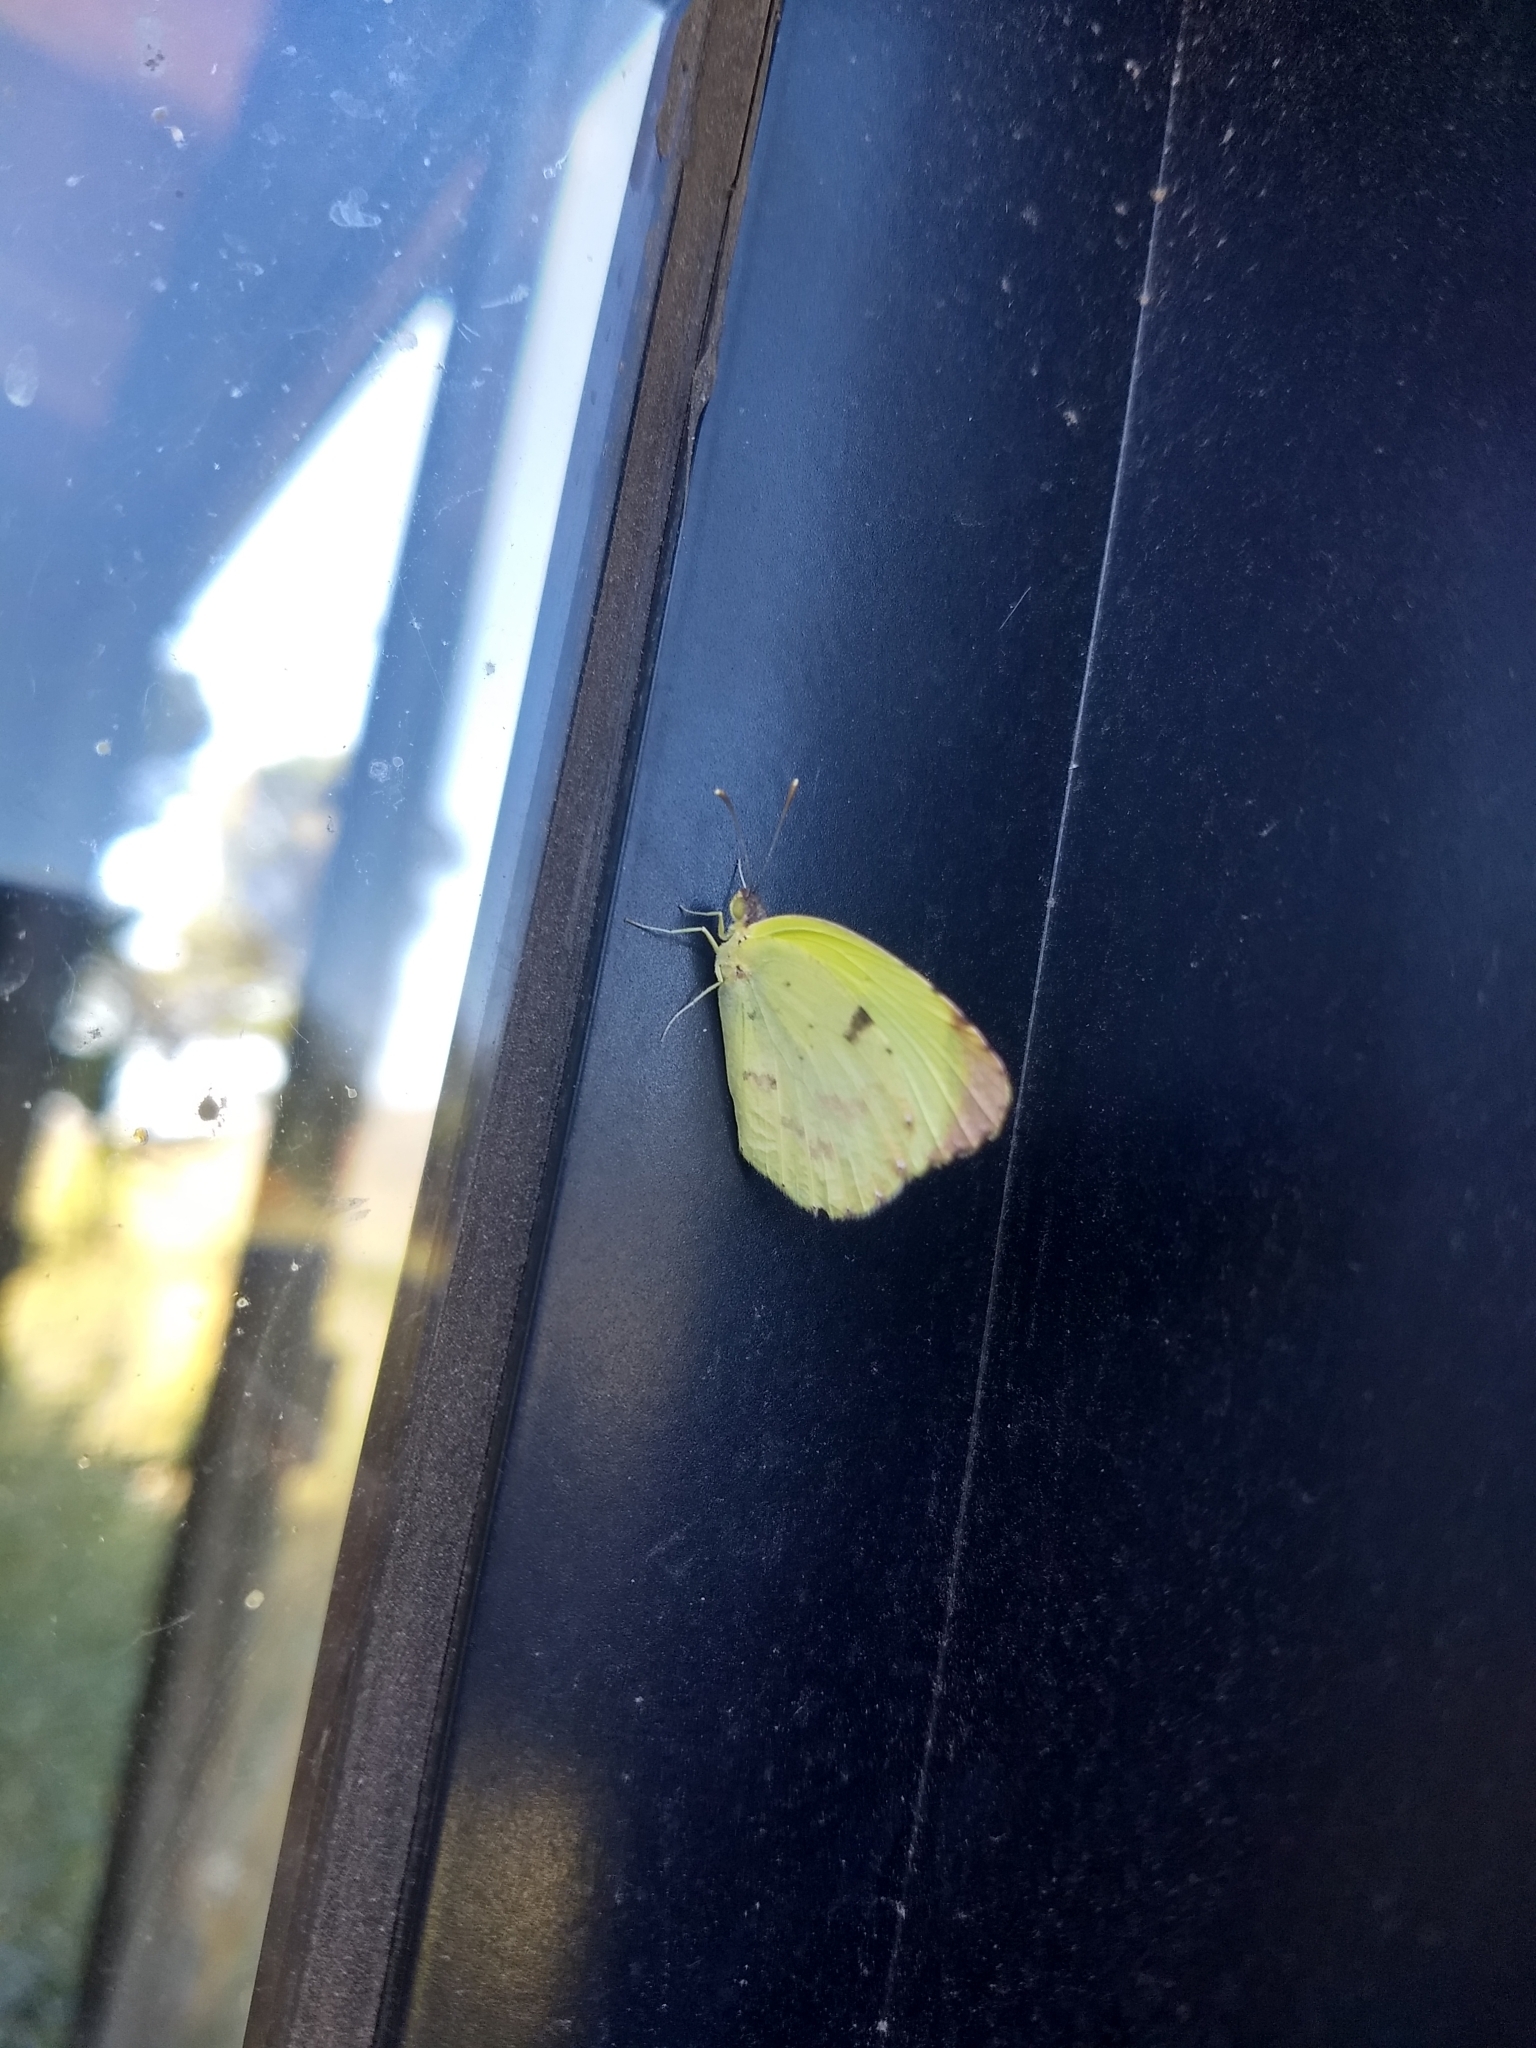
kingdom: Animalia
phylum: Arthropoda
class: Insecta
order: Lepidoptera
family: Pieridae
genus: Teriocolias
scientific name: Teriocolias
